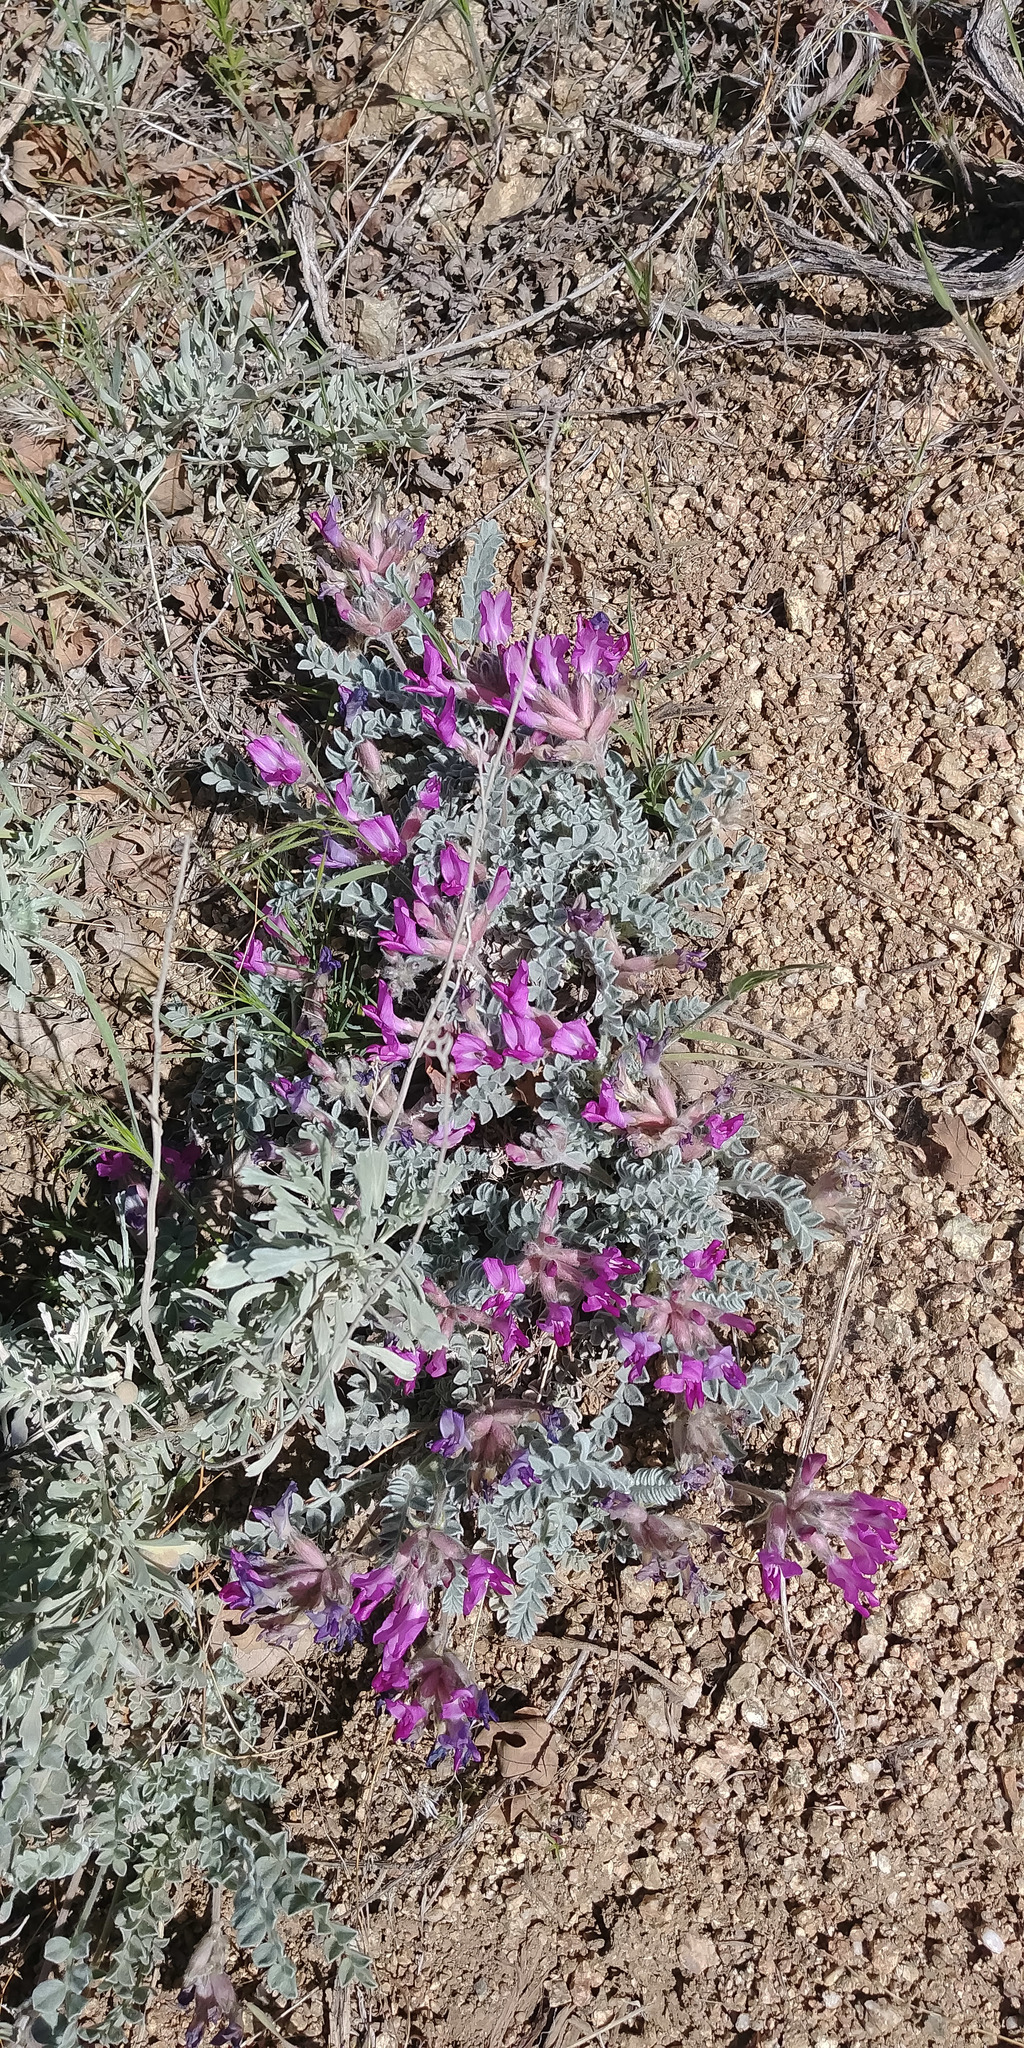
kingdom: Plantae
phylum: Tracheophyta
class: Magnoliopsida
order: Fabales
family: Fabaceae
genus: Astragalus
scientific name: Astragalus utahensis
